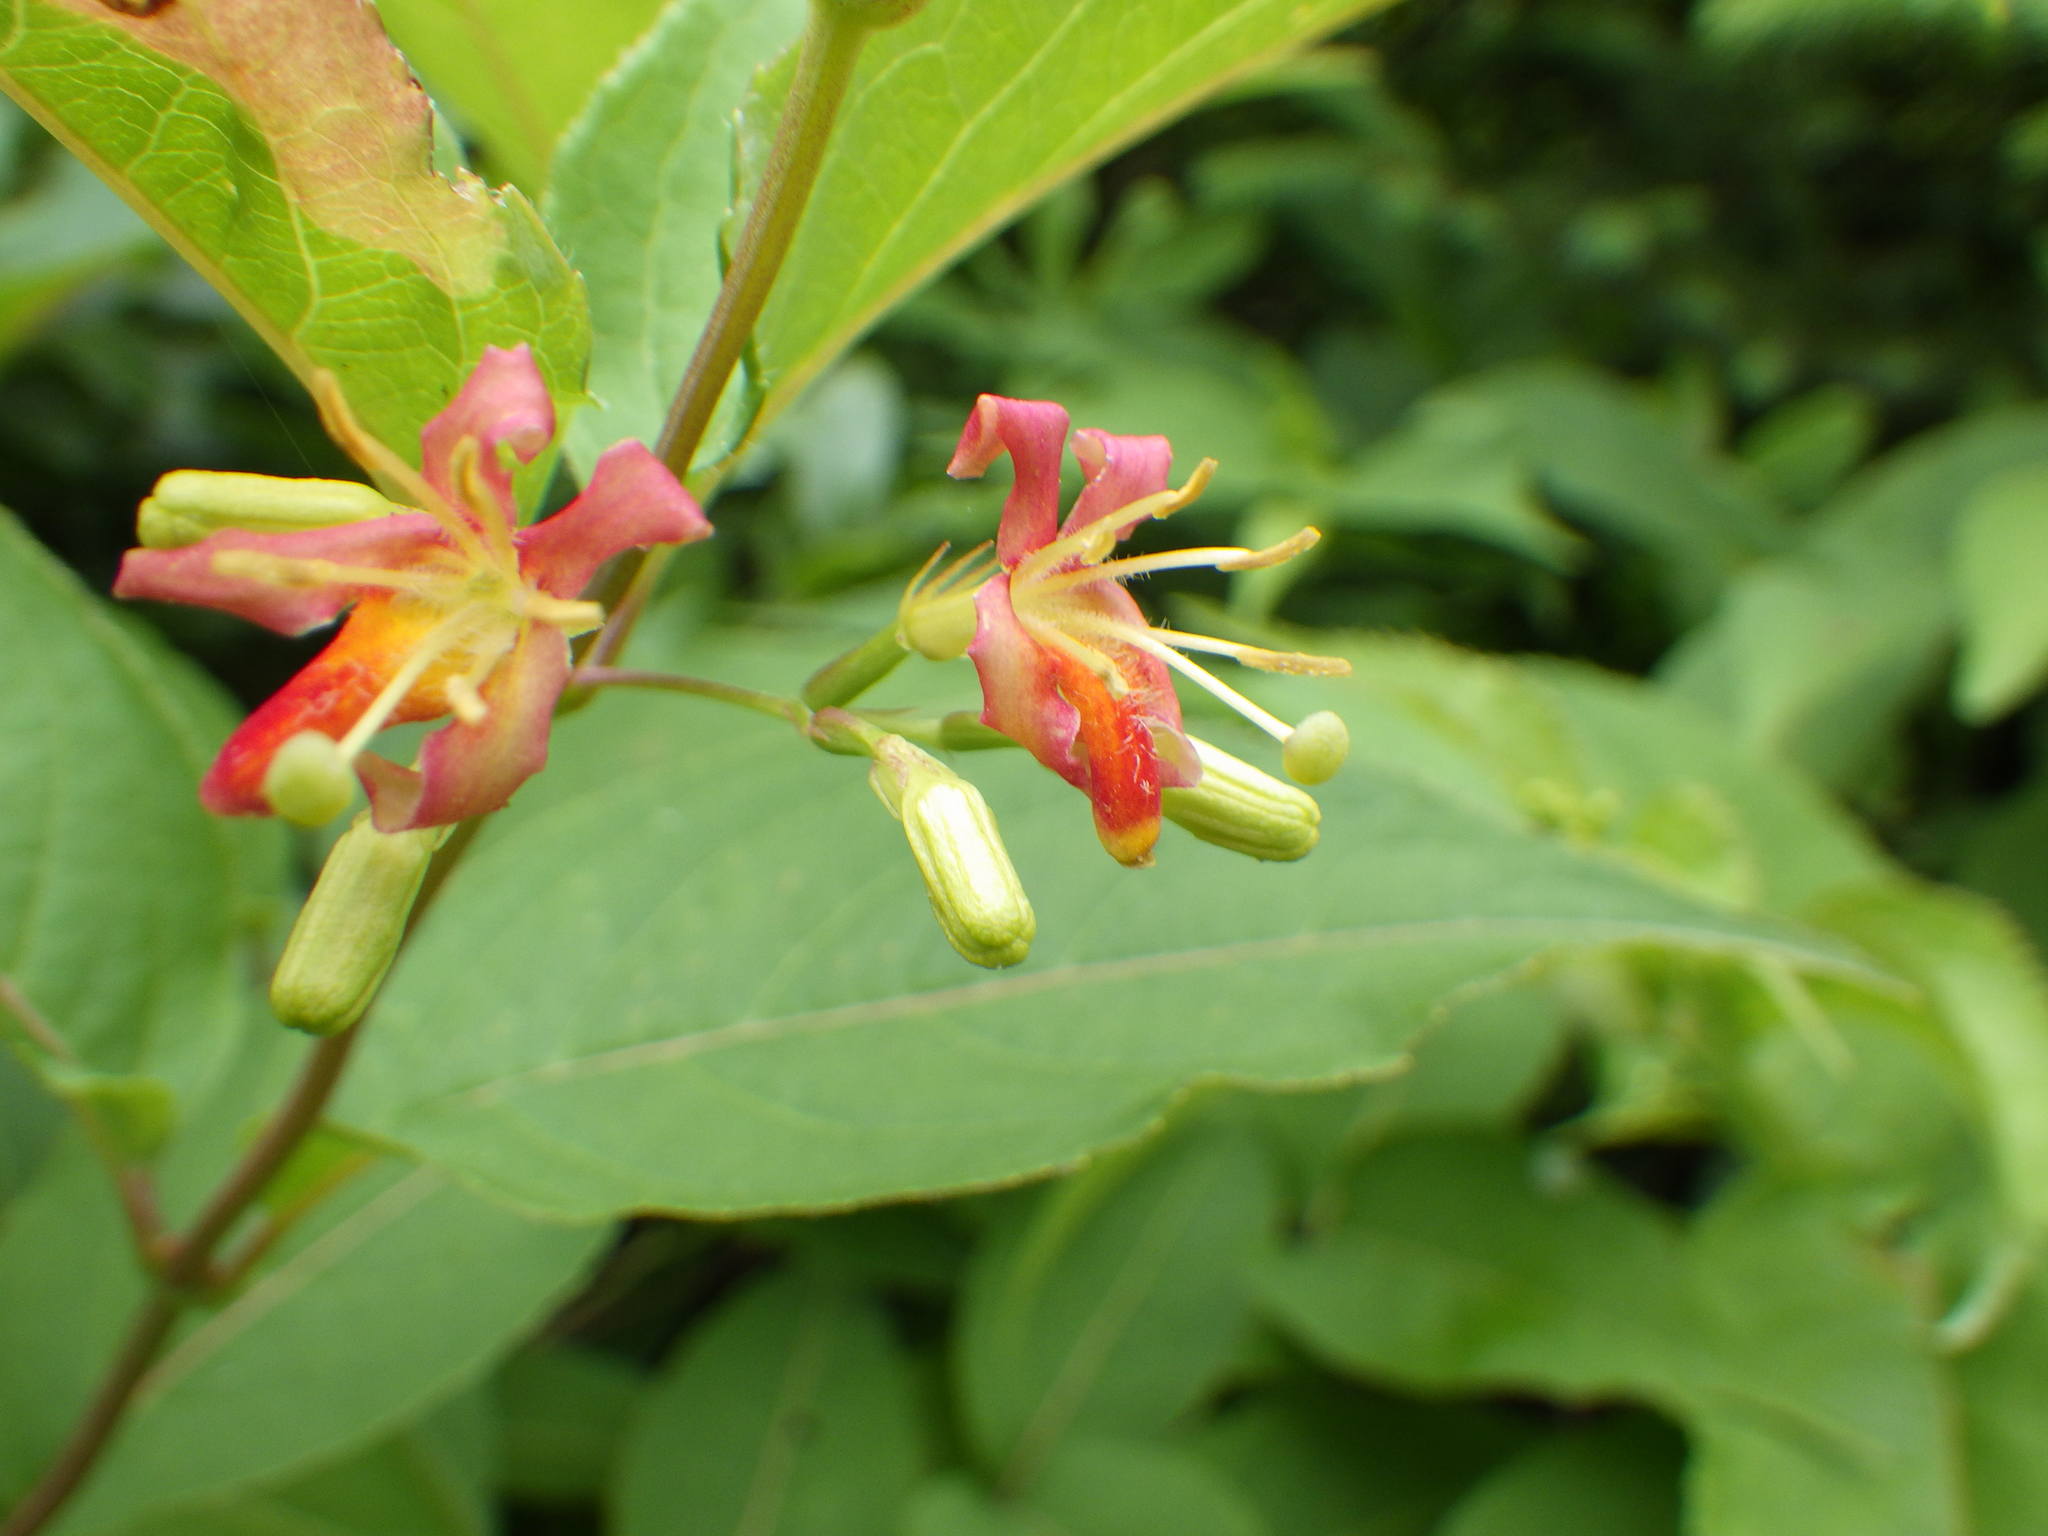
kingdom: Plantae
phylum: Tracheophyta
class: Magnoliopsida
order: Dipsacales
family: Caprifoliaceae
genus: Diervilla
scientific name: Diervilla lonicera
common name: Bush-honeysuckle
